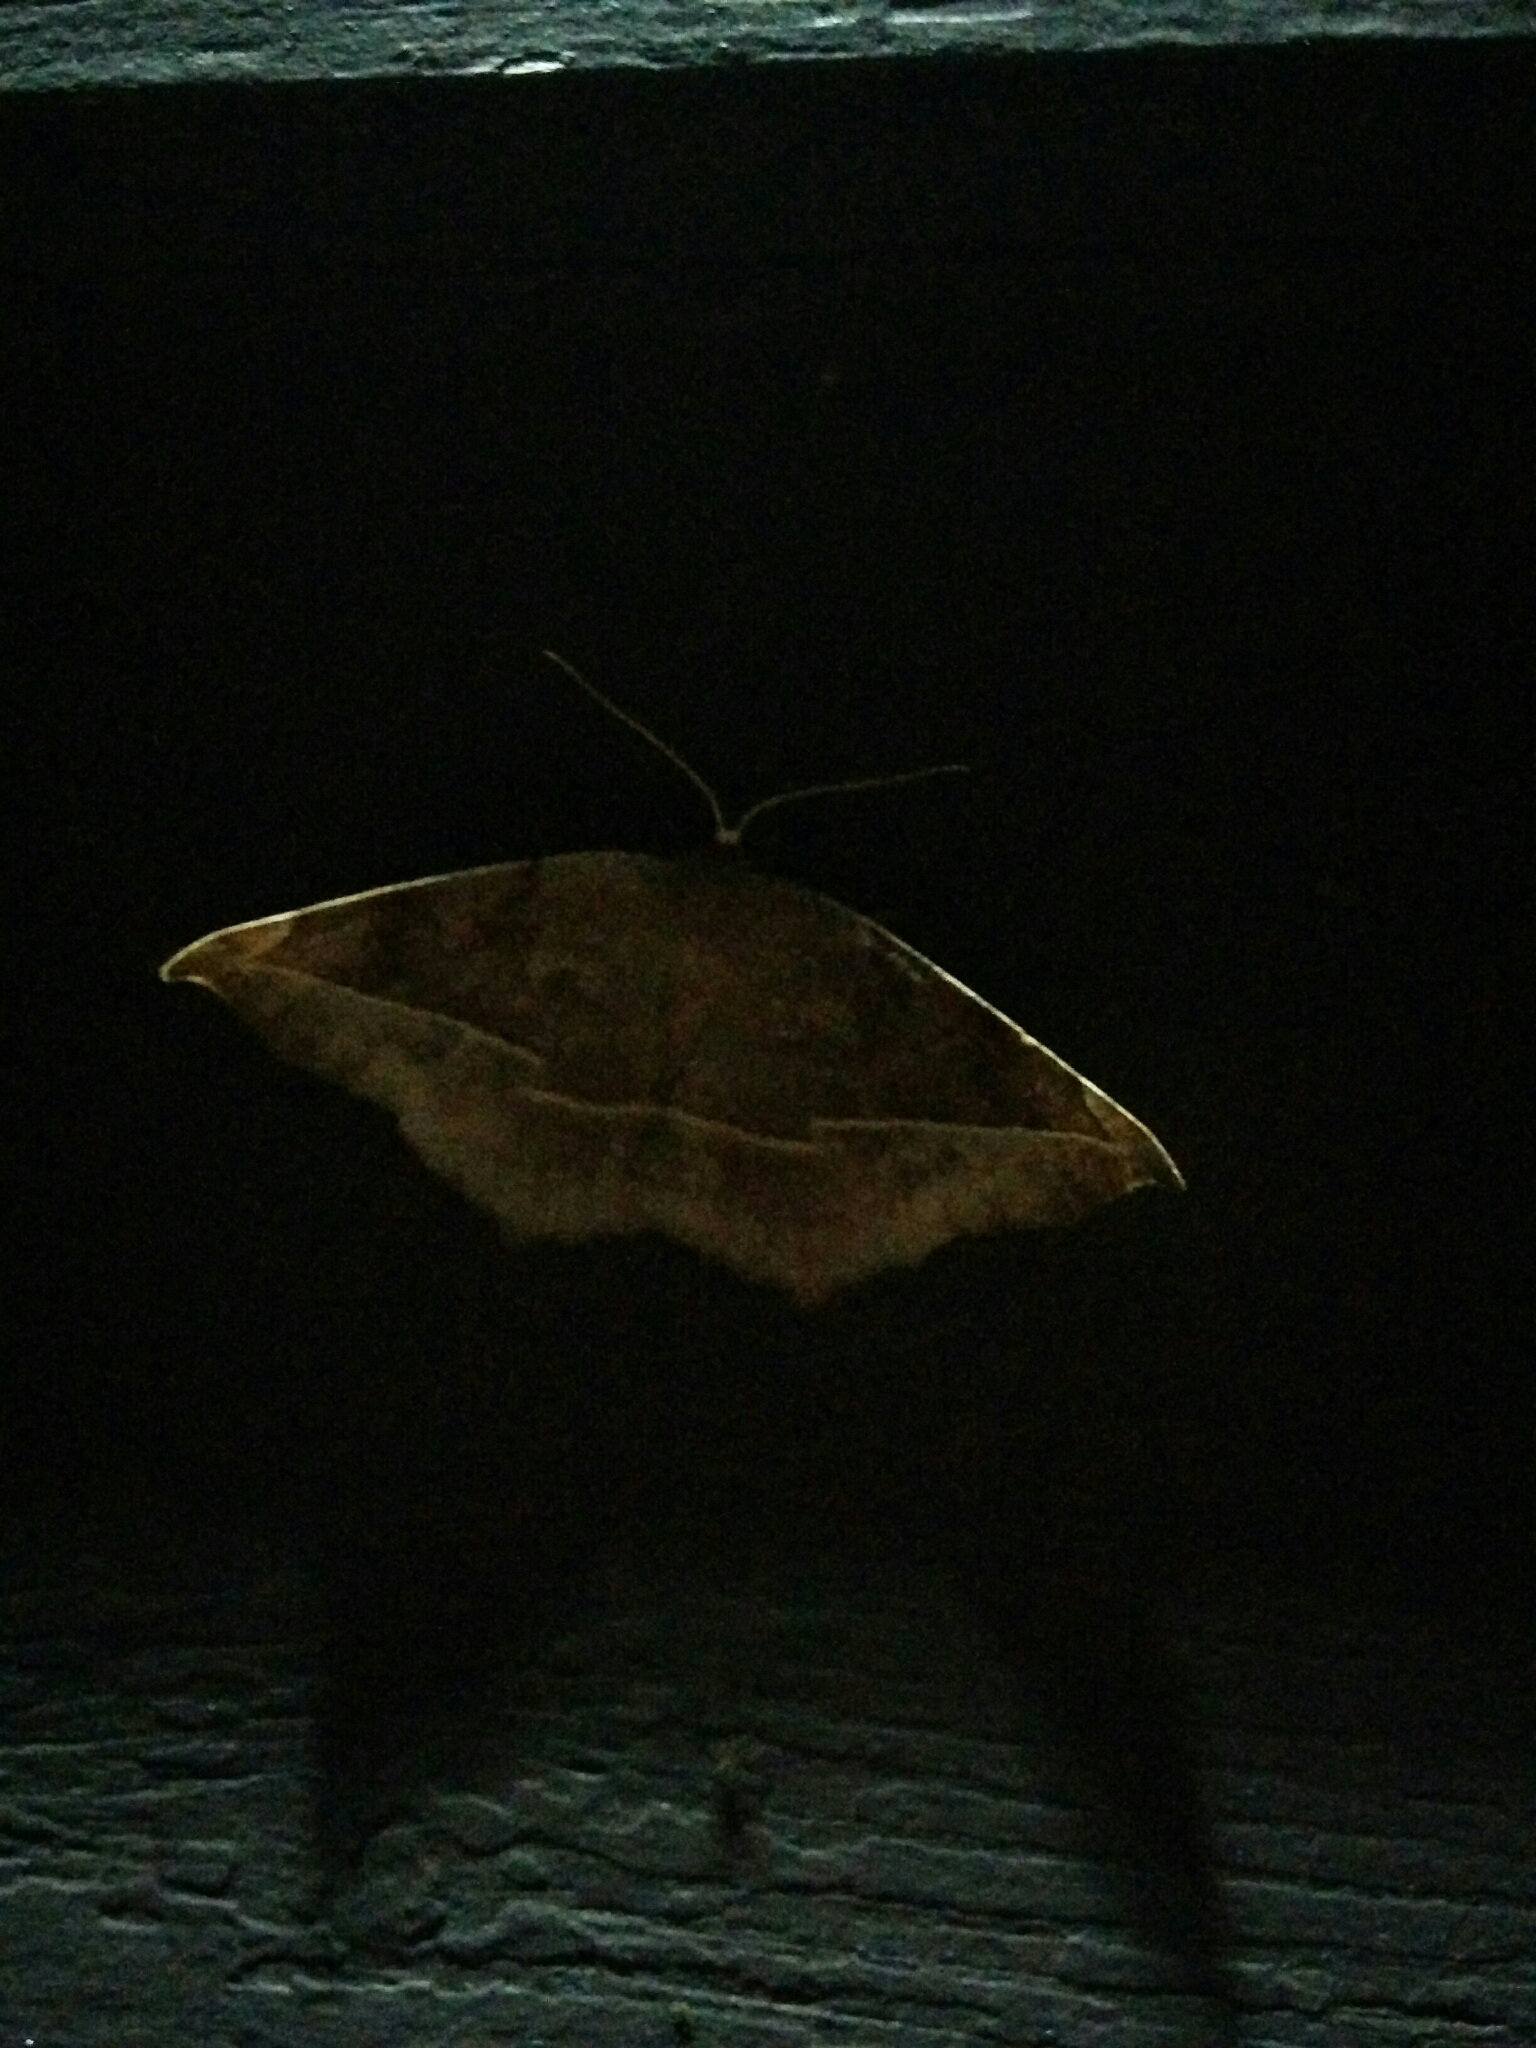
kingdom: Animalia
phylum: Arthropoda
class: Insecta
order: Lepidoptera
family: Geometridae
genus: Eutrapela
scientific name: Eutrapela clemataria
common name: Curved-toothed geometer
